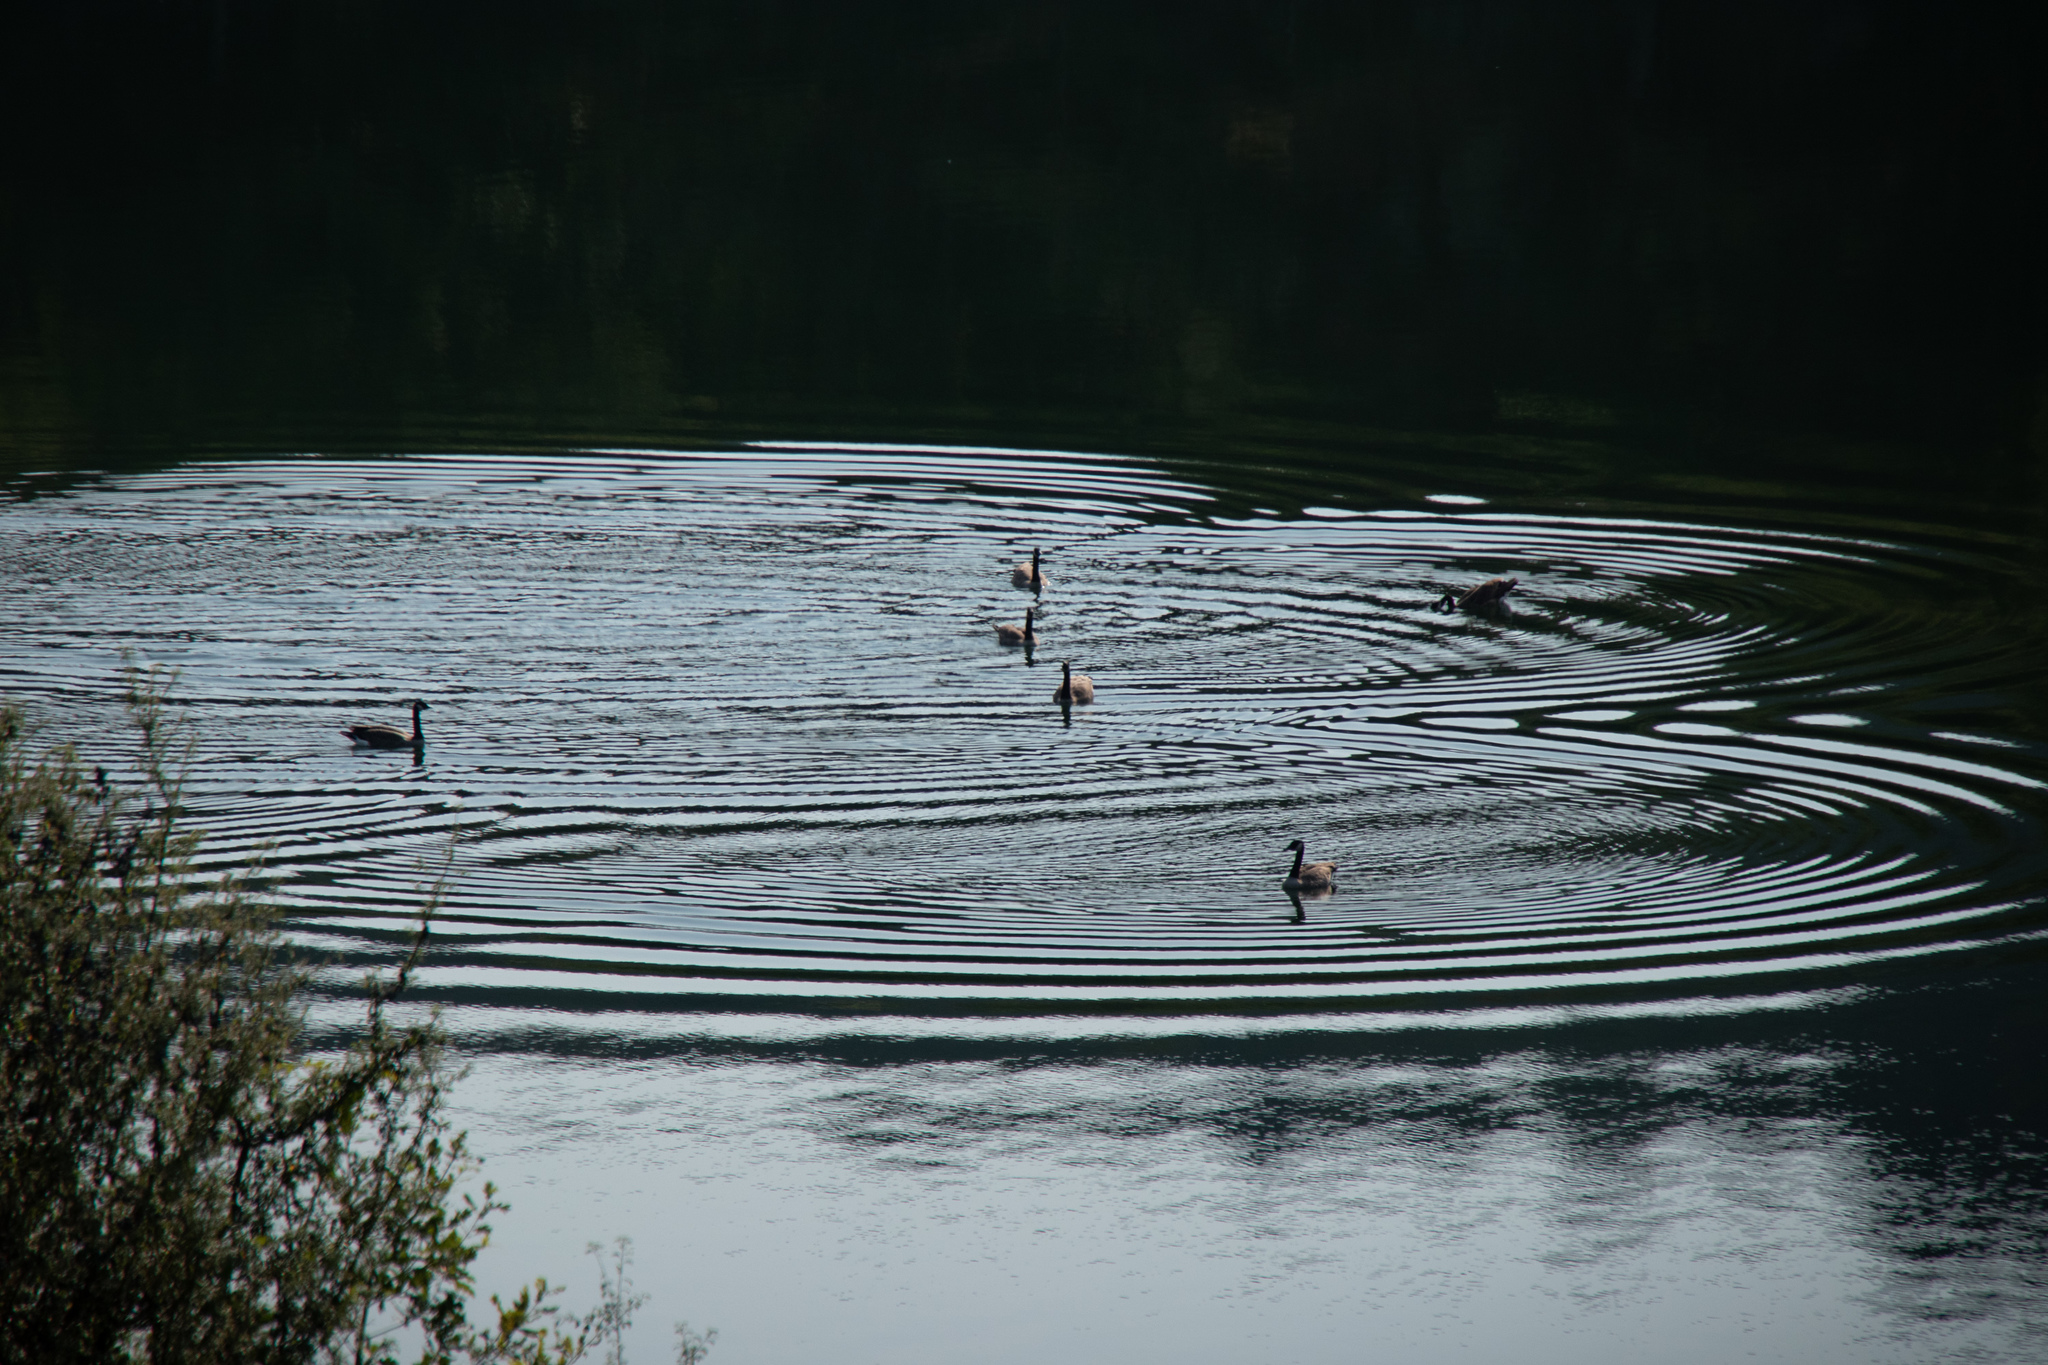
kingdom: Animalia
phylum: Chordata
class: Aves
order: Anseriformes
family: Anatidae
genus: Branta
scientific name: Branta canadensis
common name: Canada goose
